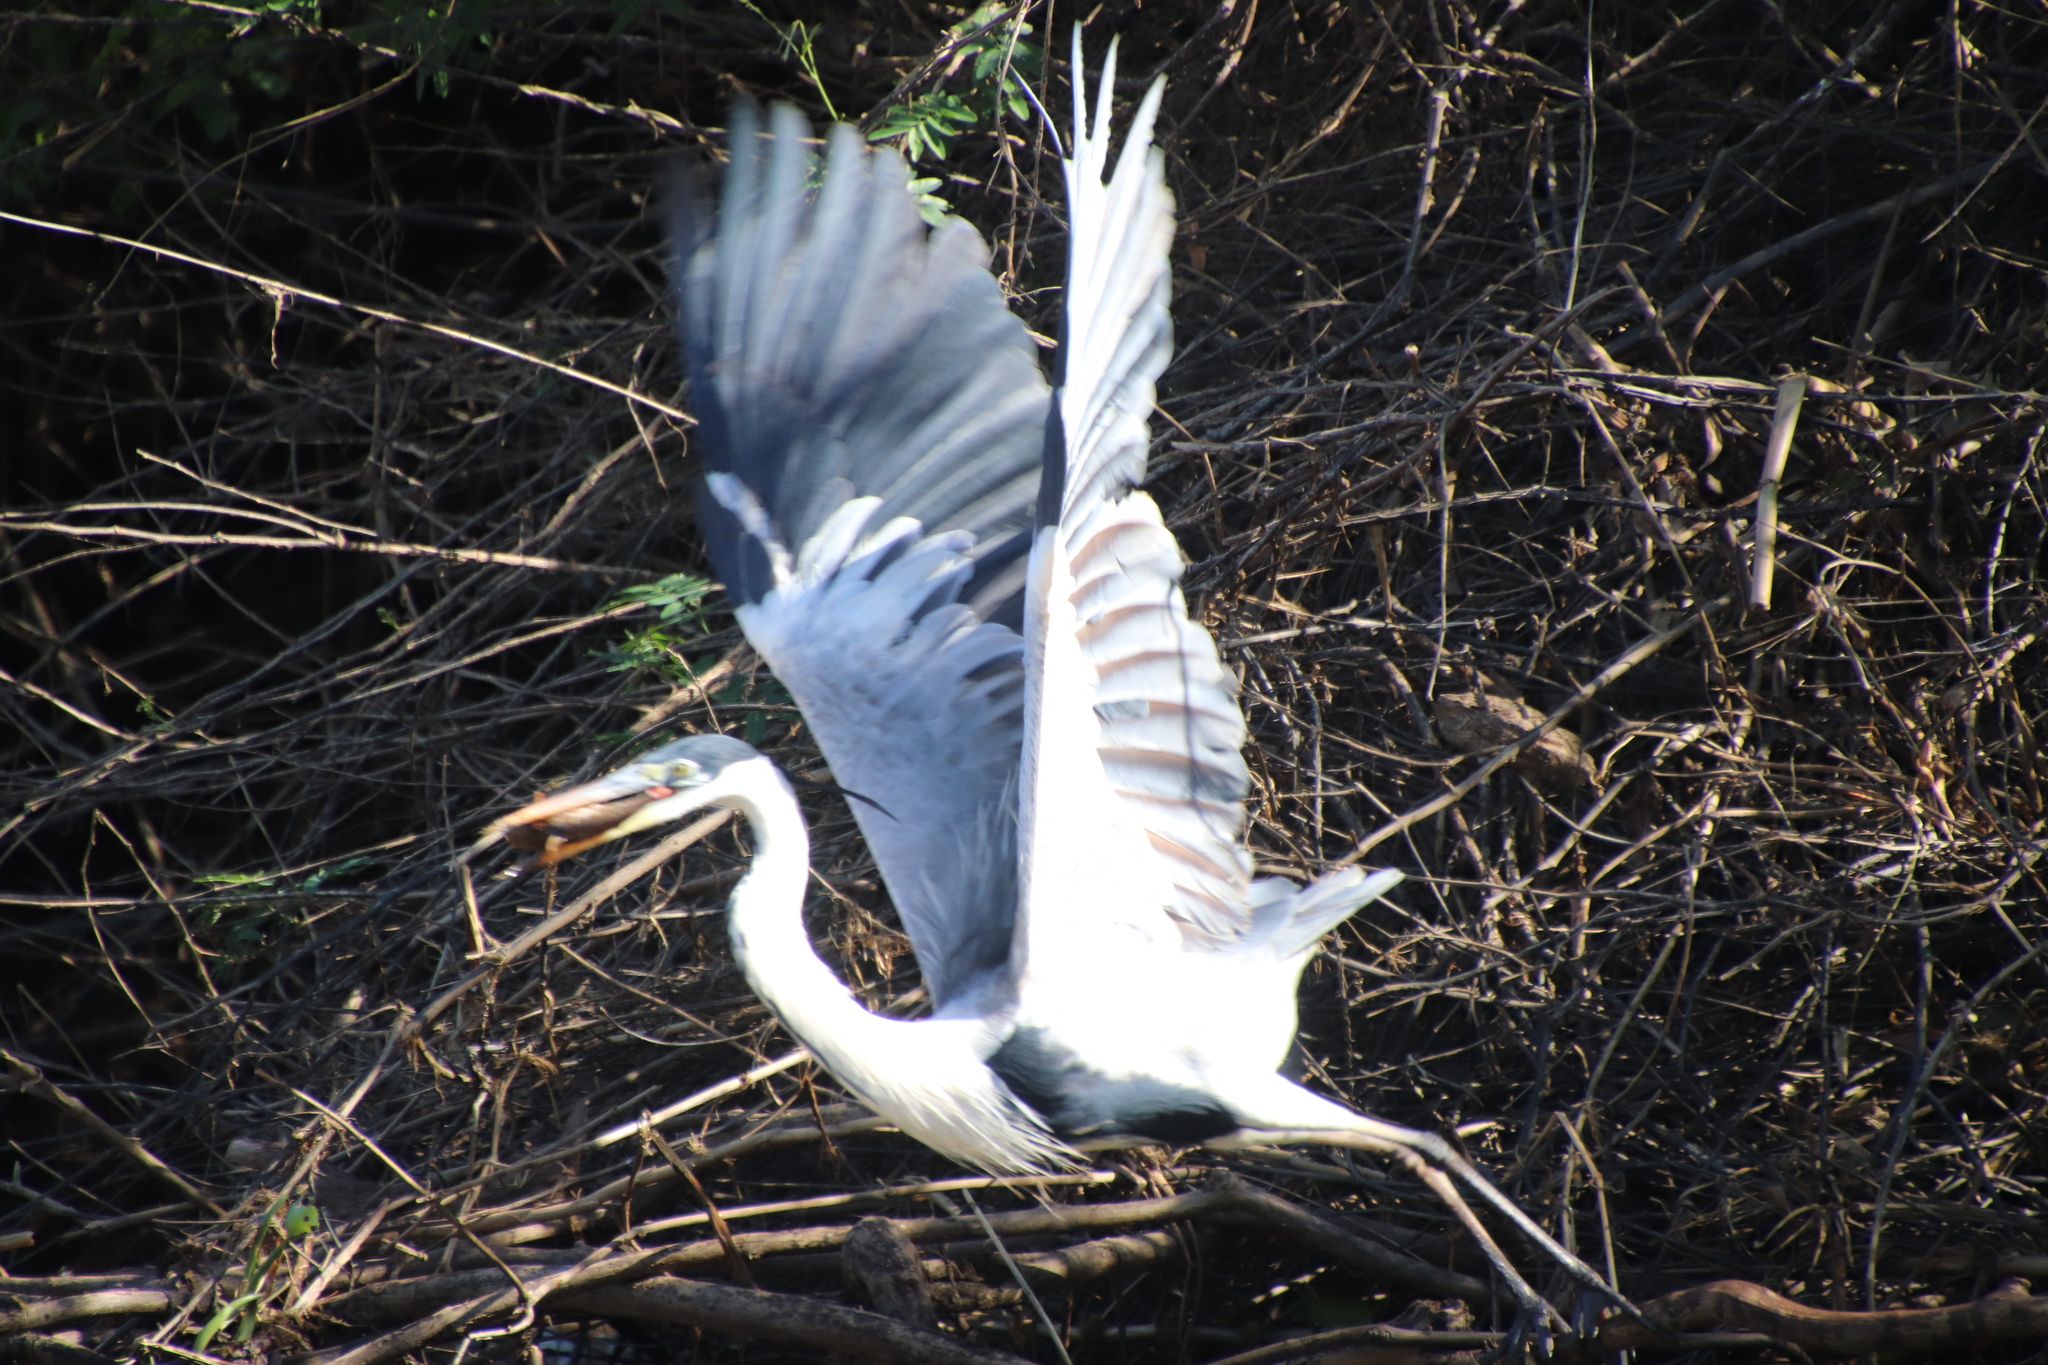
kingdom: Animalia
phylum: Chordata
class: Aves
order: Pelecaniformes
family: Ardeidae
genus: Ardea
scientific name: Ardea cocoi
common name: Cocoi heron
